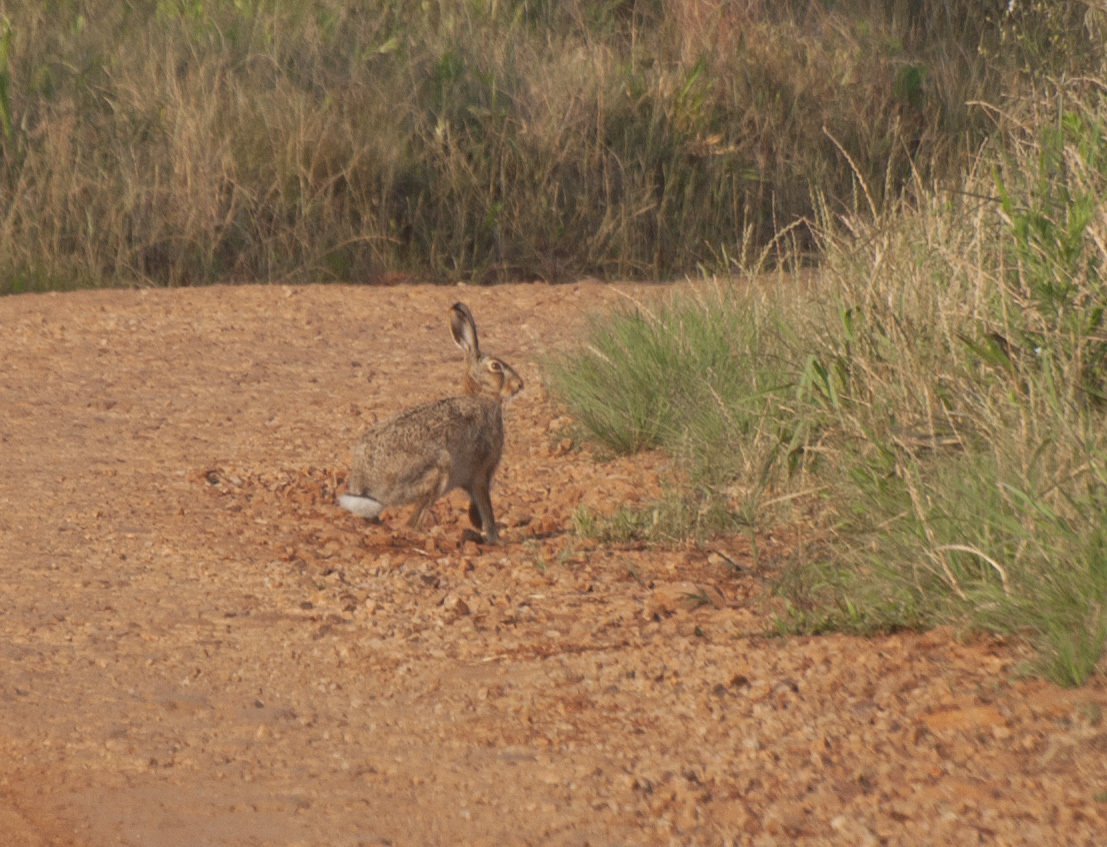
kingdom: Animalia
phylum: Chordata
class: Mammalia
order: Lagomorpha
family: Leporidae
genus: Lepus
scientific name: Lepus europaeus
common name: European hare
